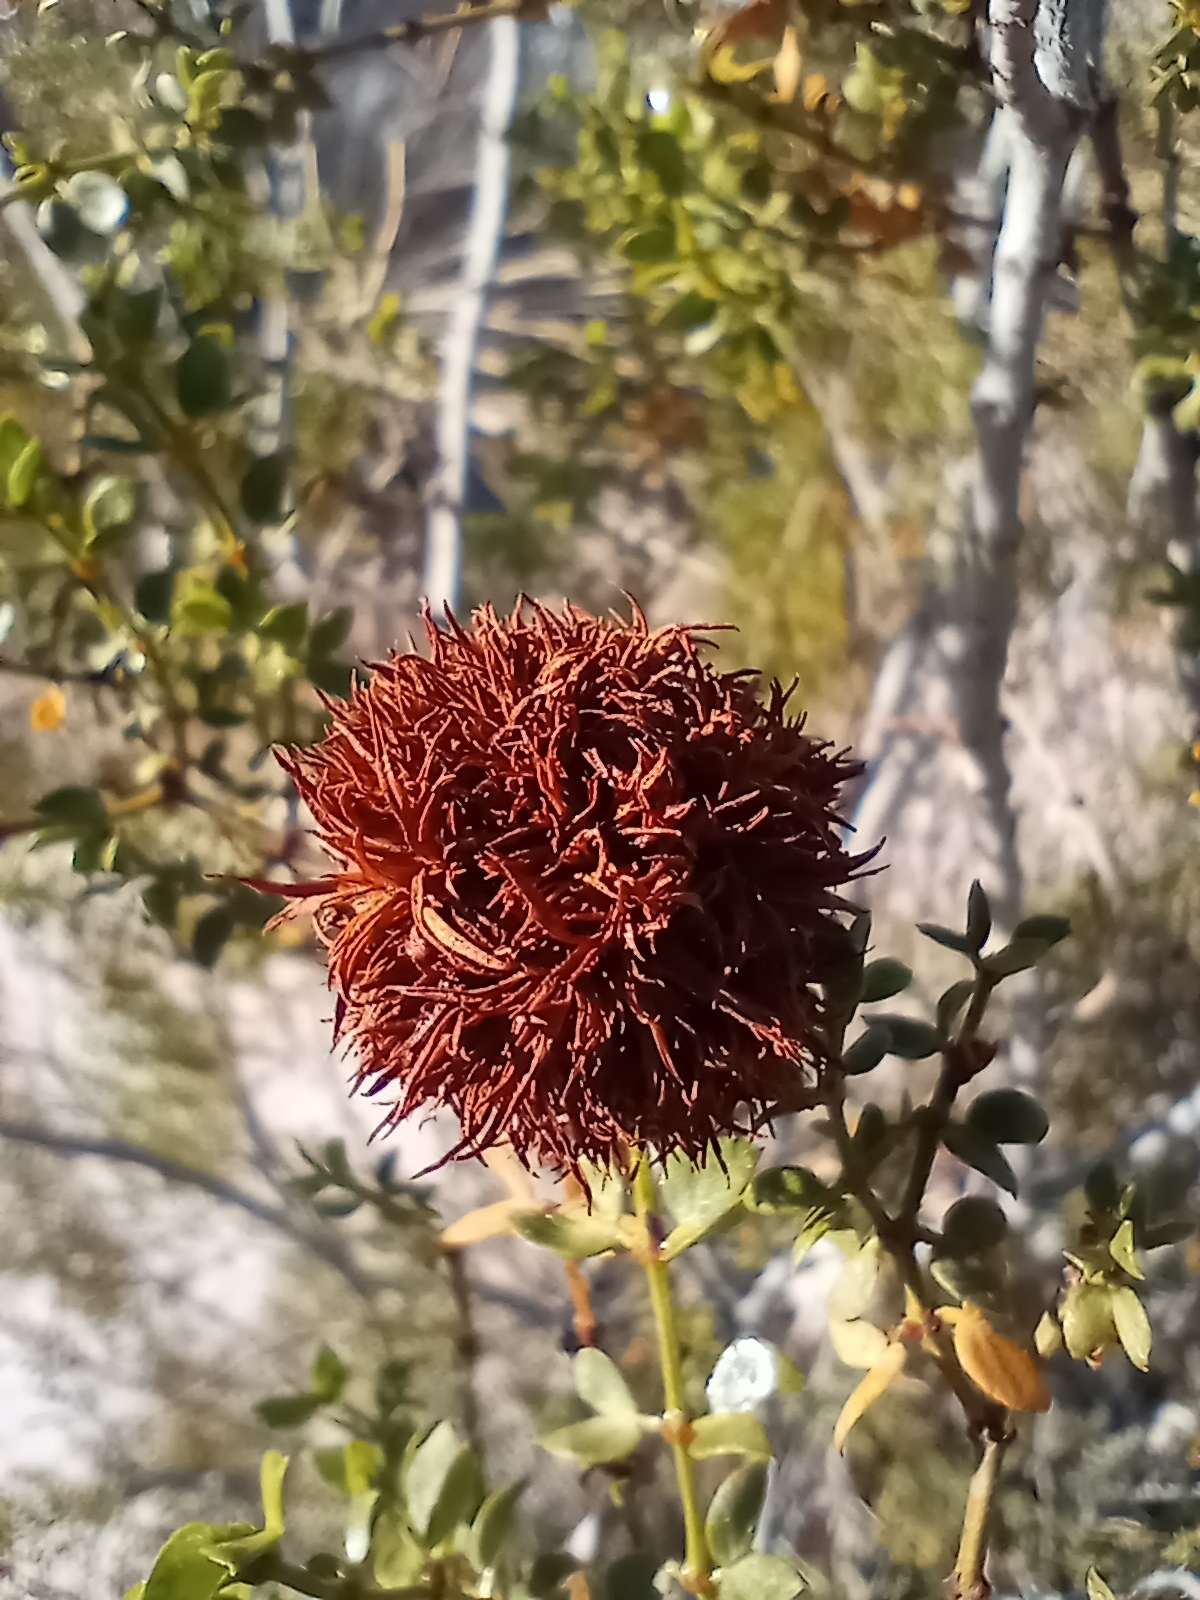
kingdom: Animalia
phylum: Arthropoda
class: Insecta
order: Diptera
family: Cecidomyiidae
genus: Asphondylia
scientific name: Asphondylia auripila
